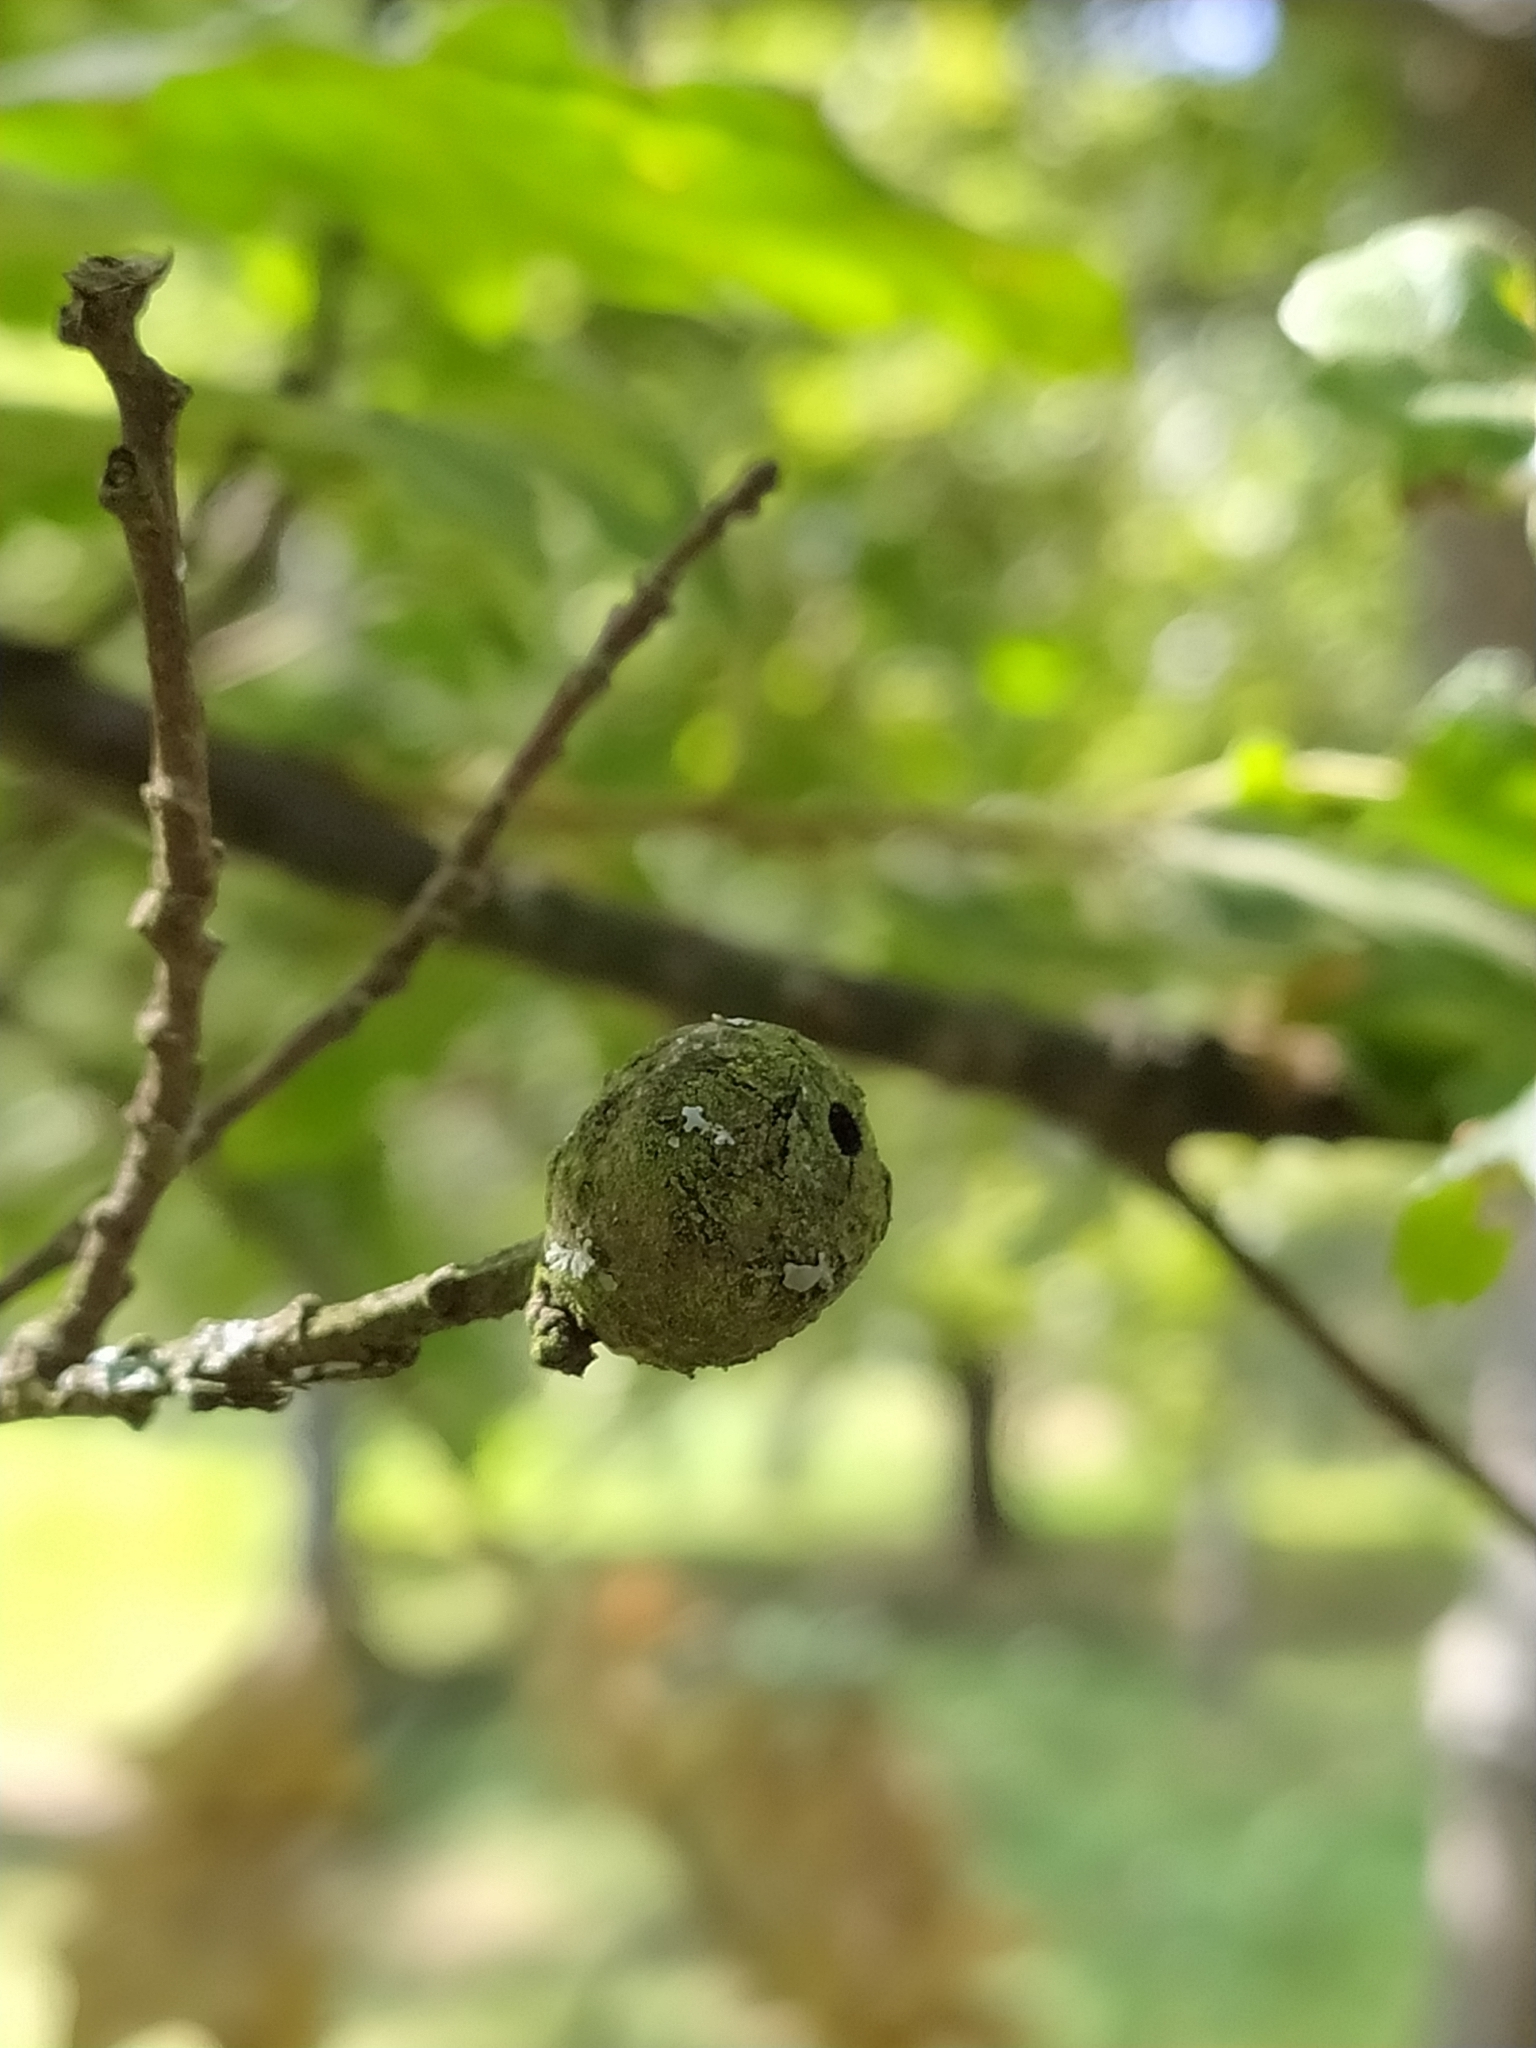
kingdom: Animalia
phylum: Arthropoda
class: Insecta
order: Hymenoptera
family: Cynipidae
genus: Andricus
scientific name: Andricus lignicolus
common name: Cola-nut gall
